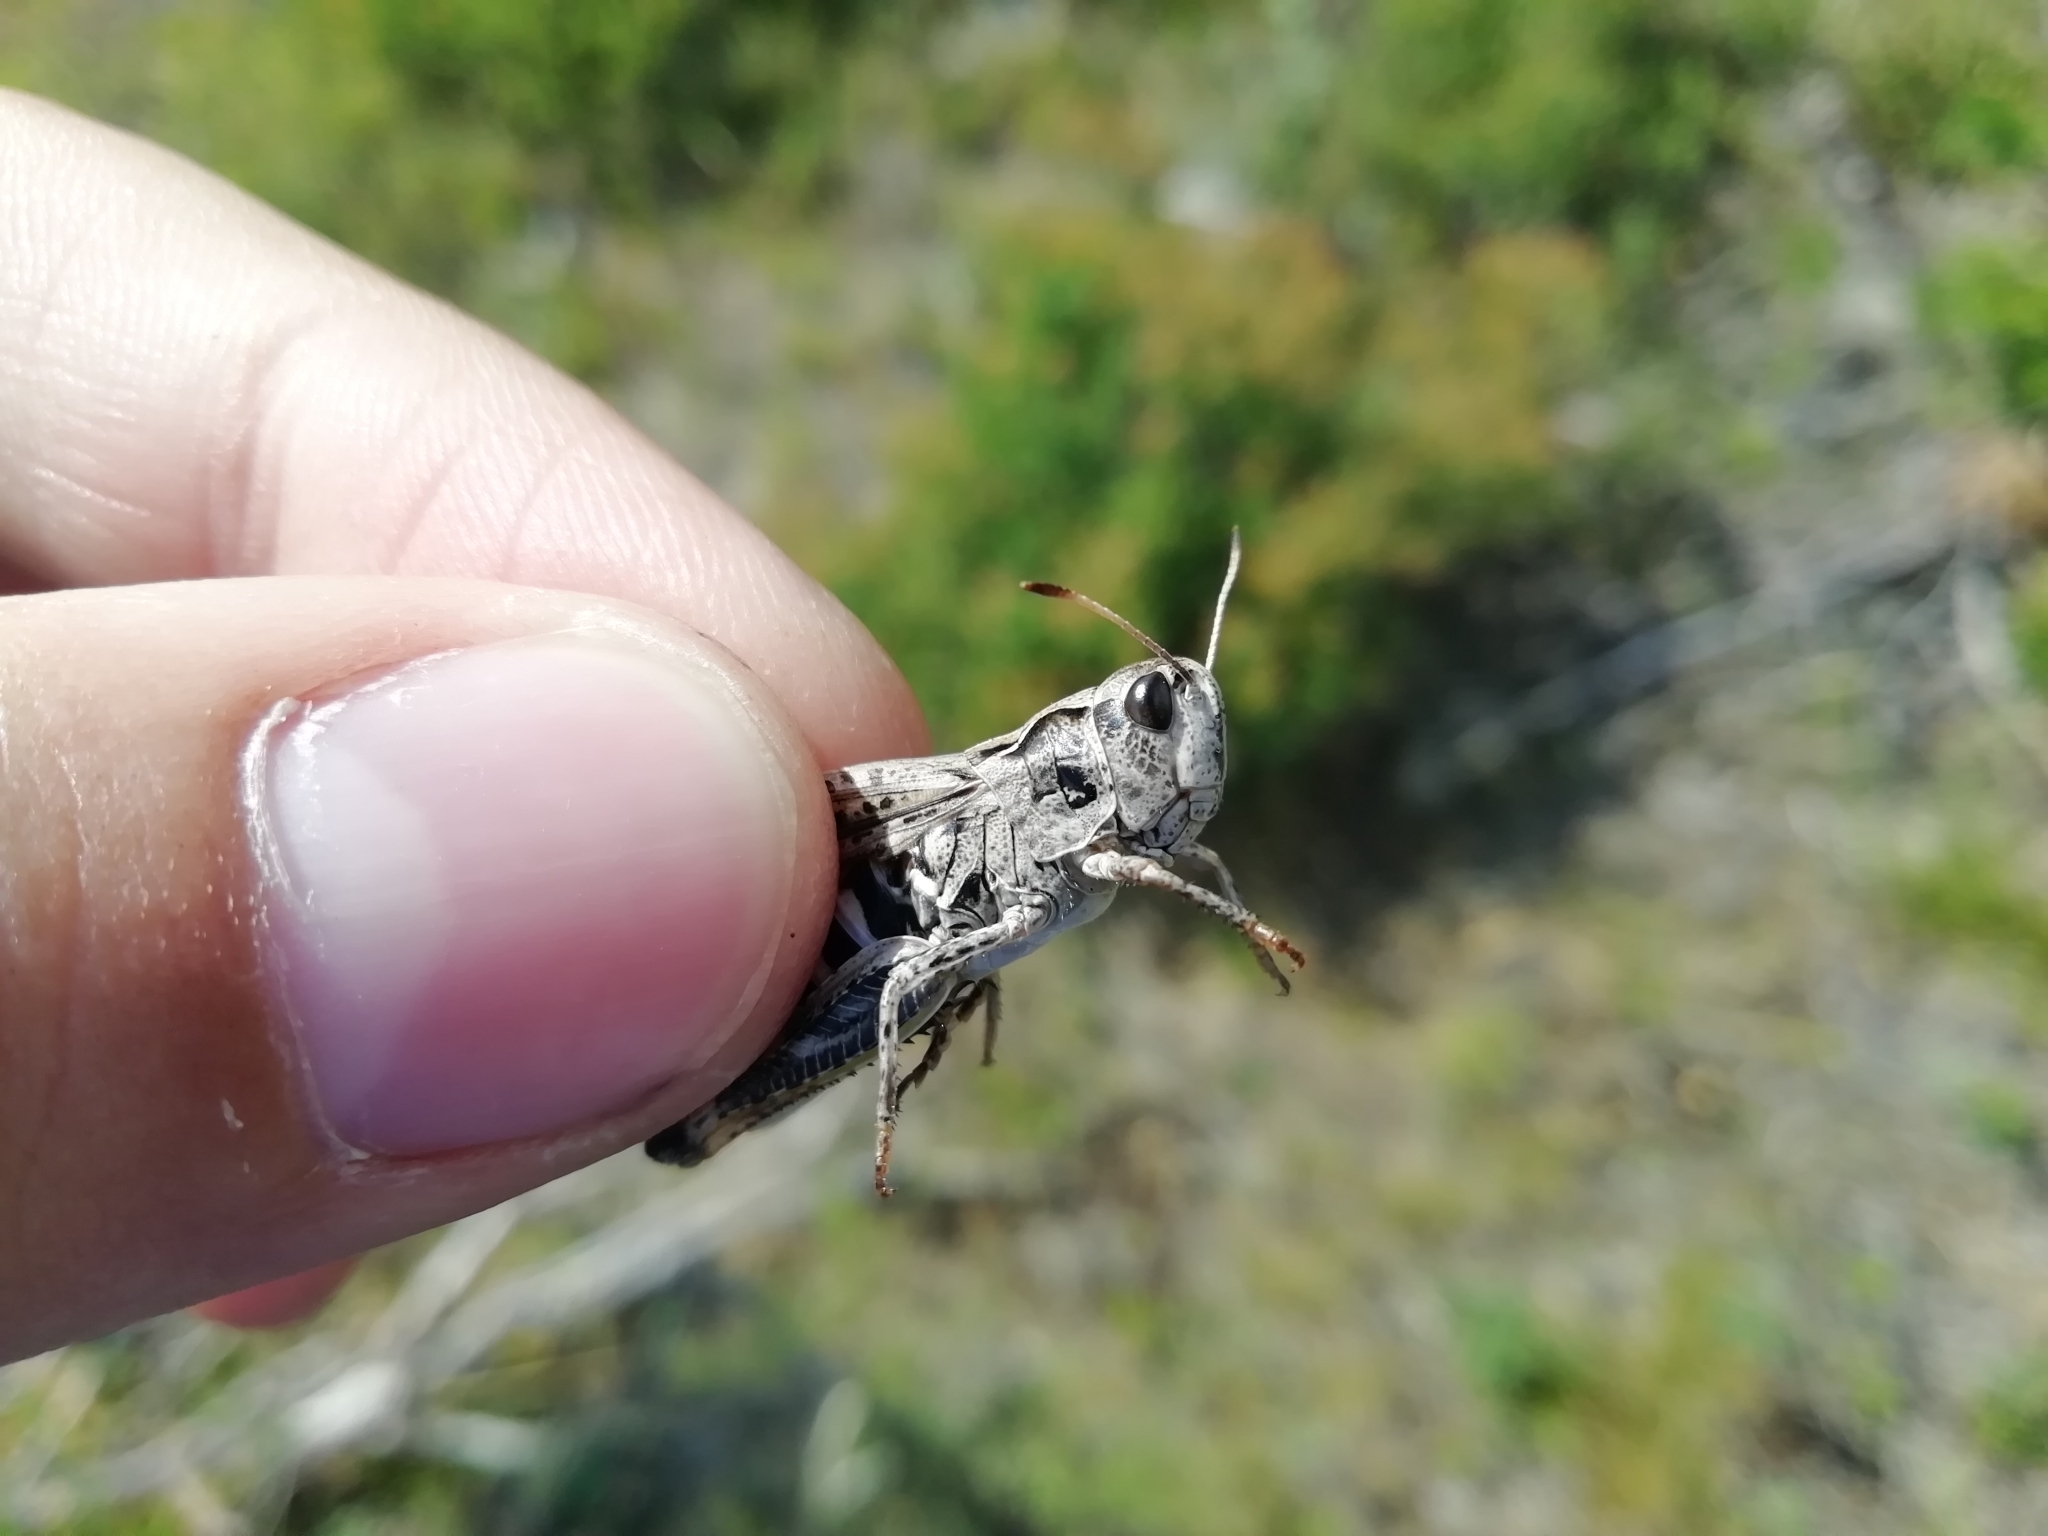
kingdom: Animalia
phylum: Arthropoda
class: Insecta
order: Orthoptera
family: Acrididae
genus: Gomphocerus
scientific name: Gomphocerus sibiricus
